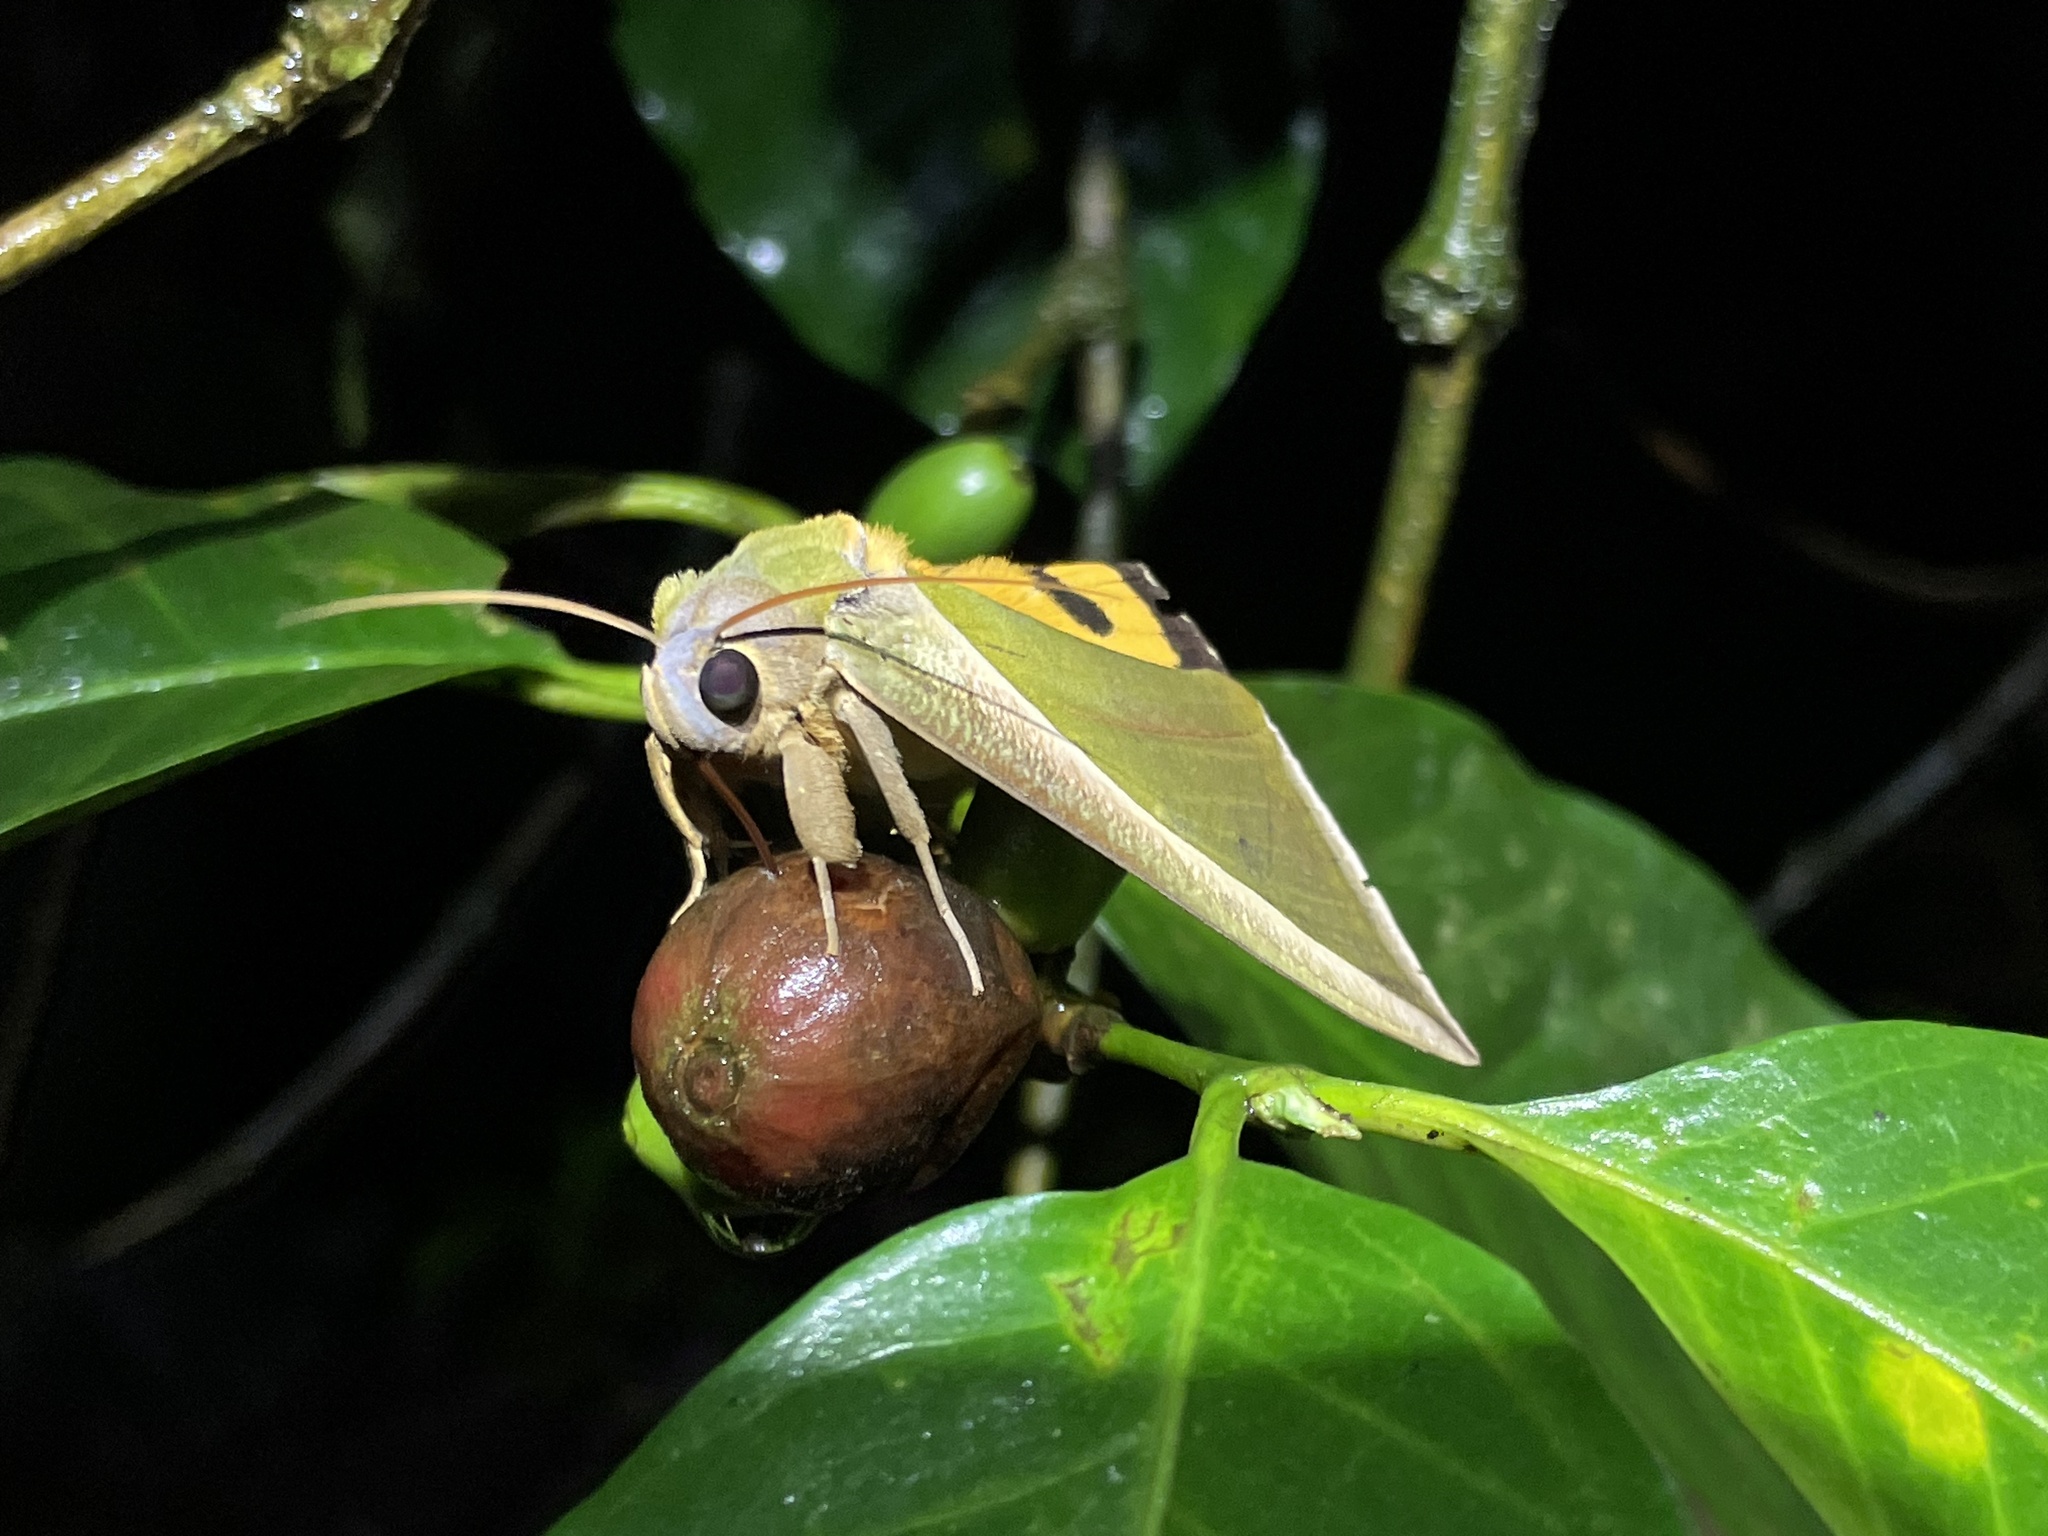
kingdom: Animalia
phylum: Arthropoda
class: Insecta
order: Lepidoptera
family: Erebidae
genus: Eudocima
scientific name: Eudocima salaminia
